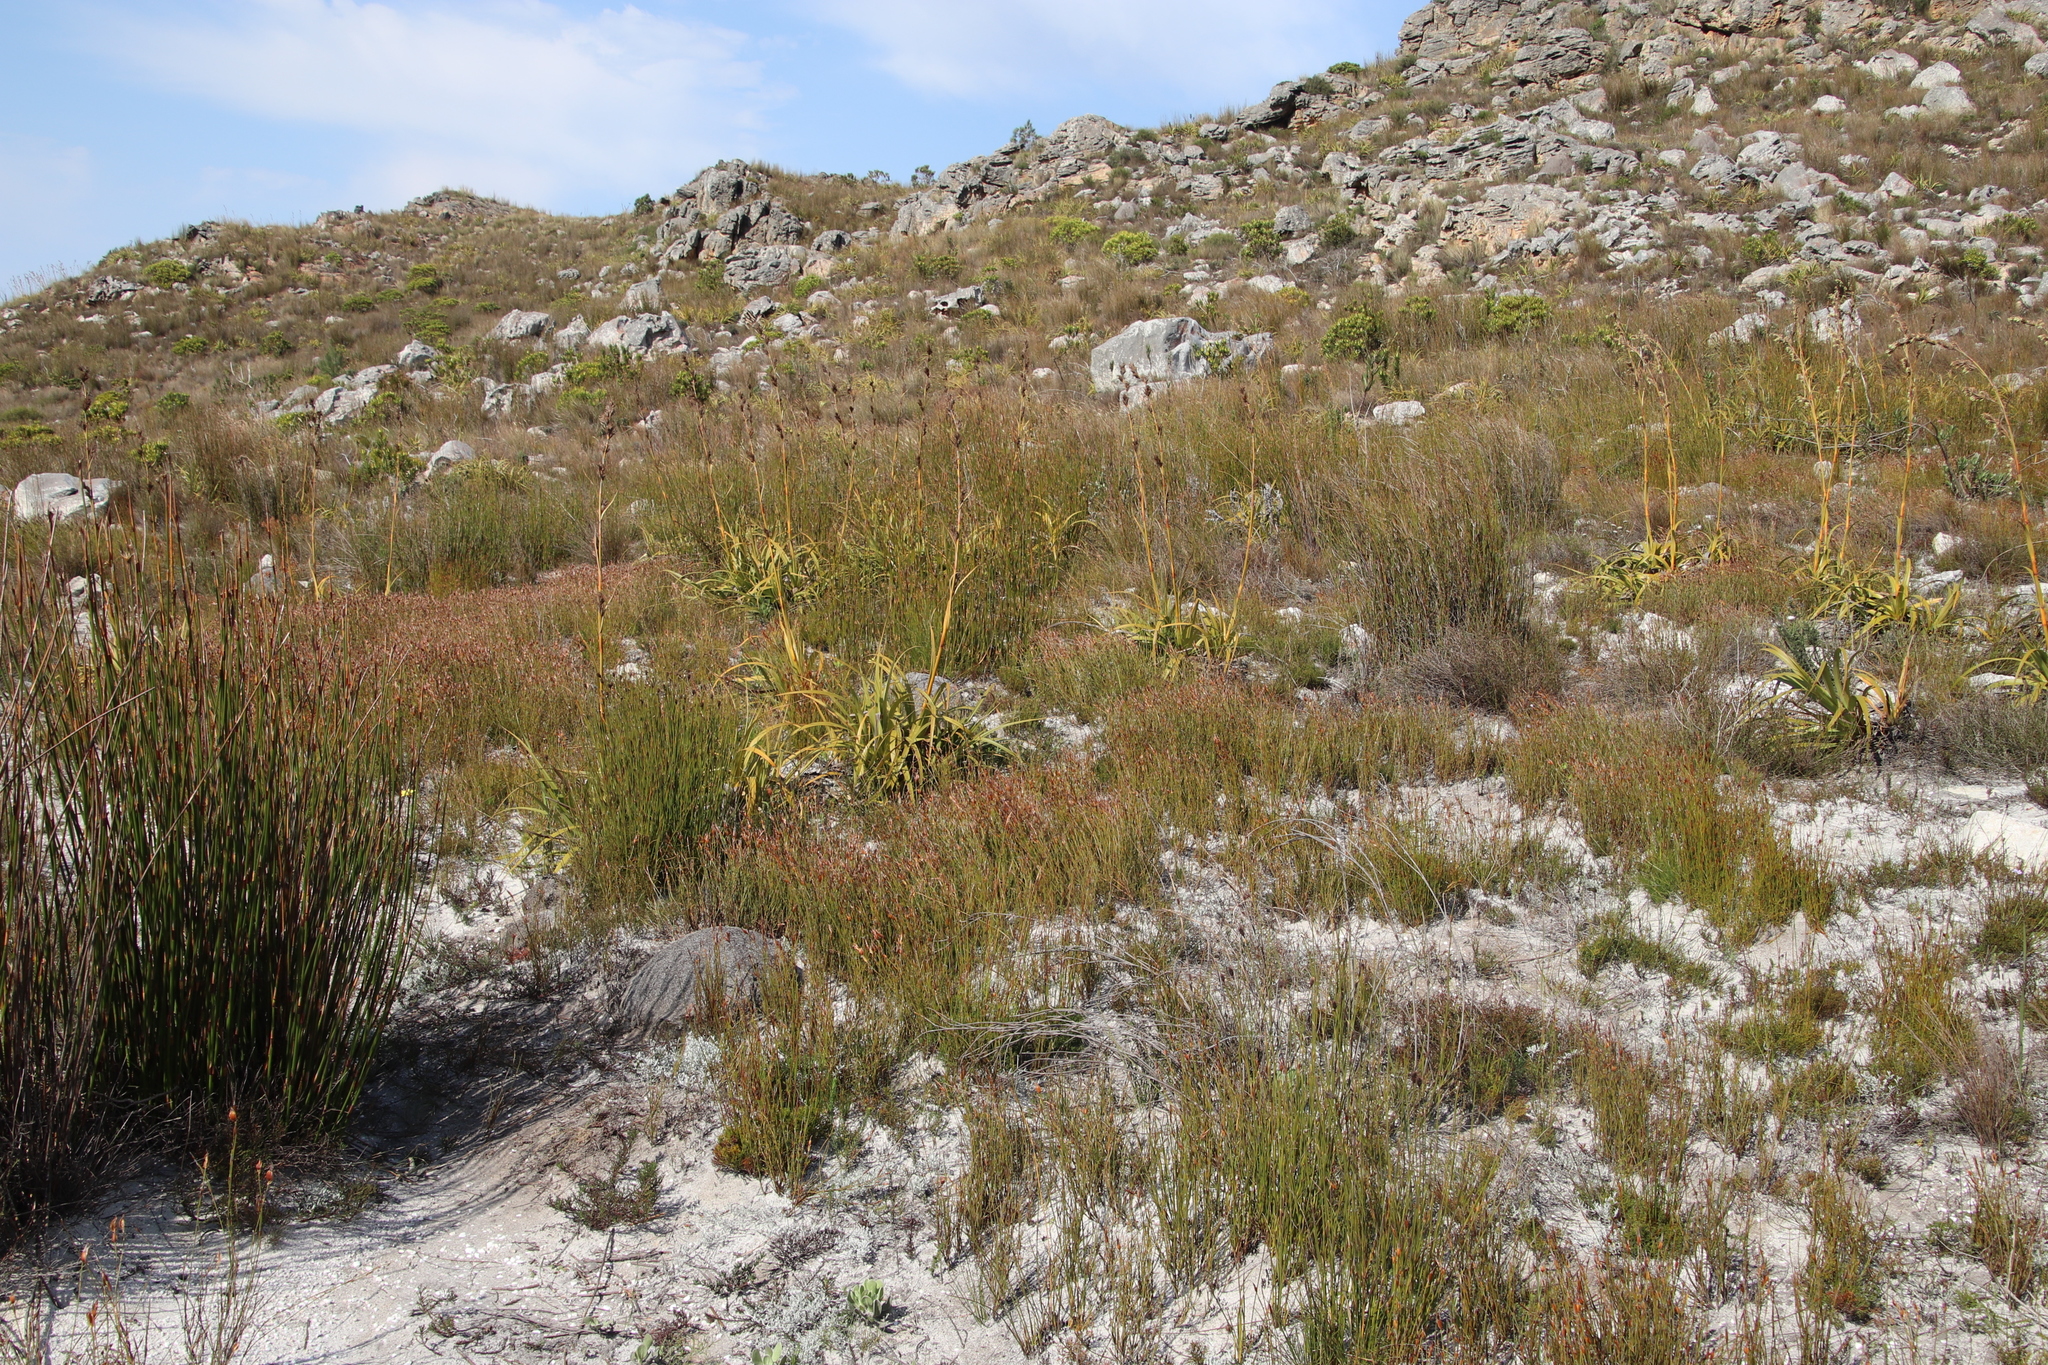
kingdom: Plantae
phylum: Tracheophyta
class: Liliopsida
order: Poales
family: Cyperaceae
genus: Tetraria
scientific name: Tetraria thermalis
